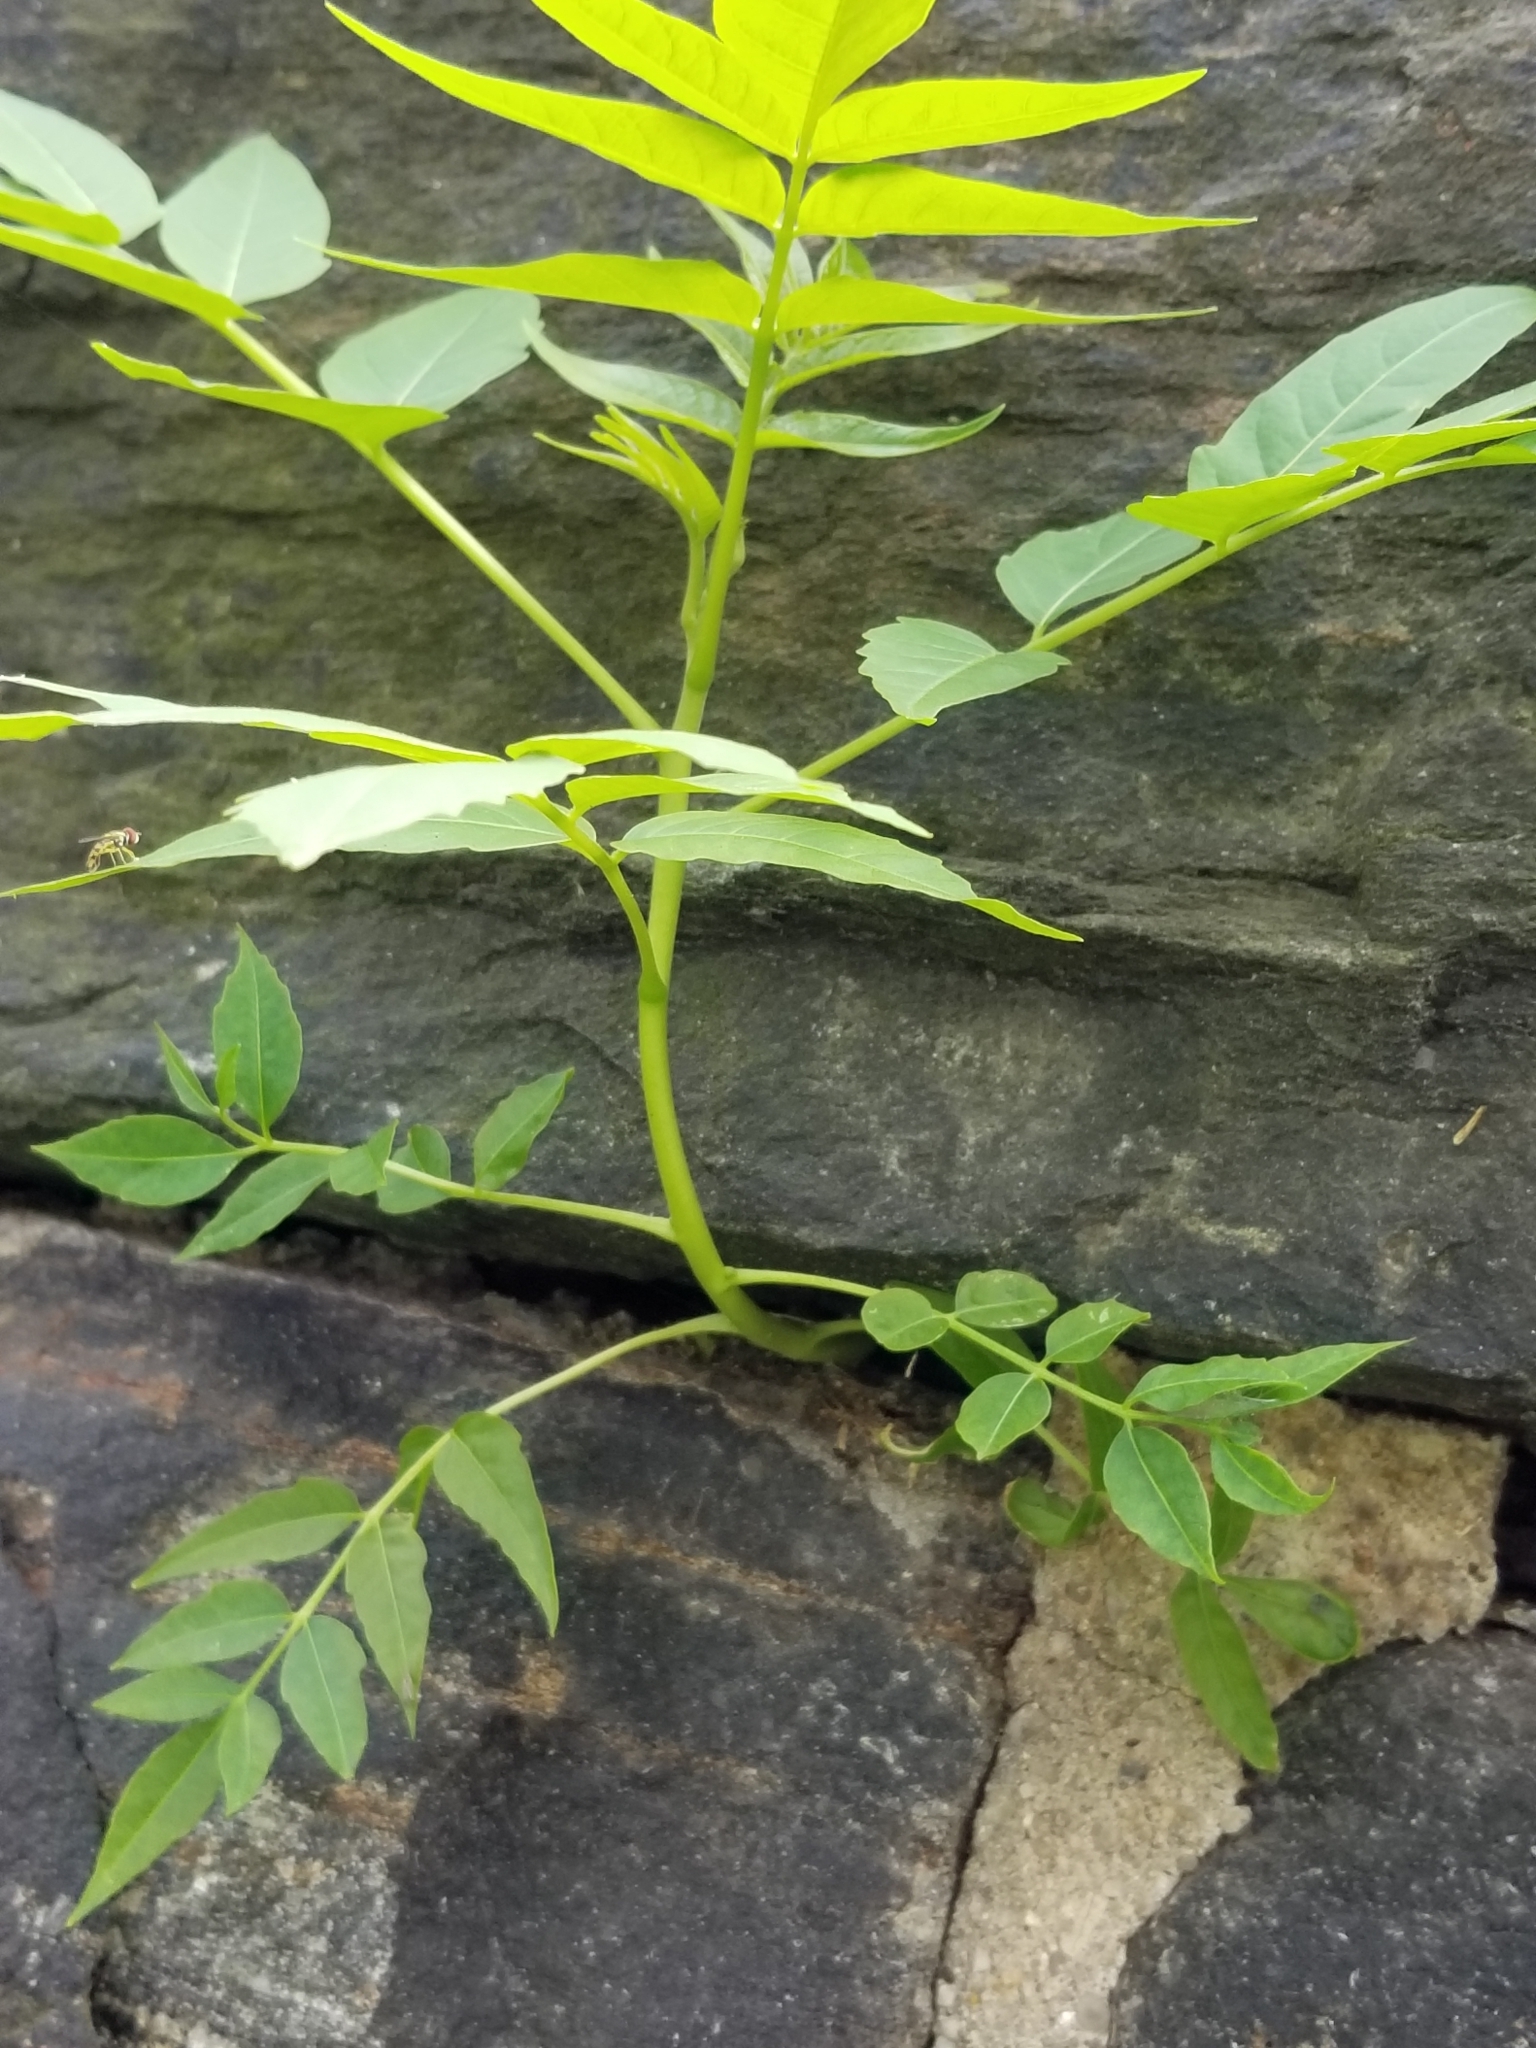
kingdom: Plantae
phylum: Tracheophyta
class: Magnoliopsida
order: Sapindales
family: Simaroubaceae
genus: Ailanthus
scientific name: Ailanthus altissima
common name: Tree-of-heaven
